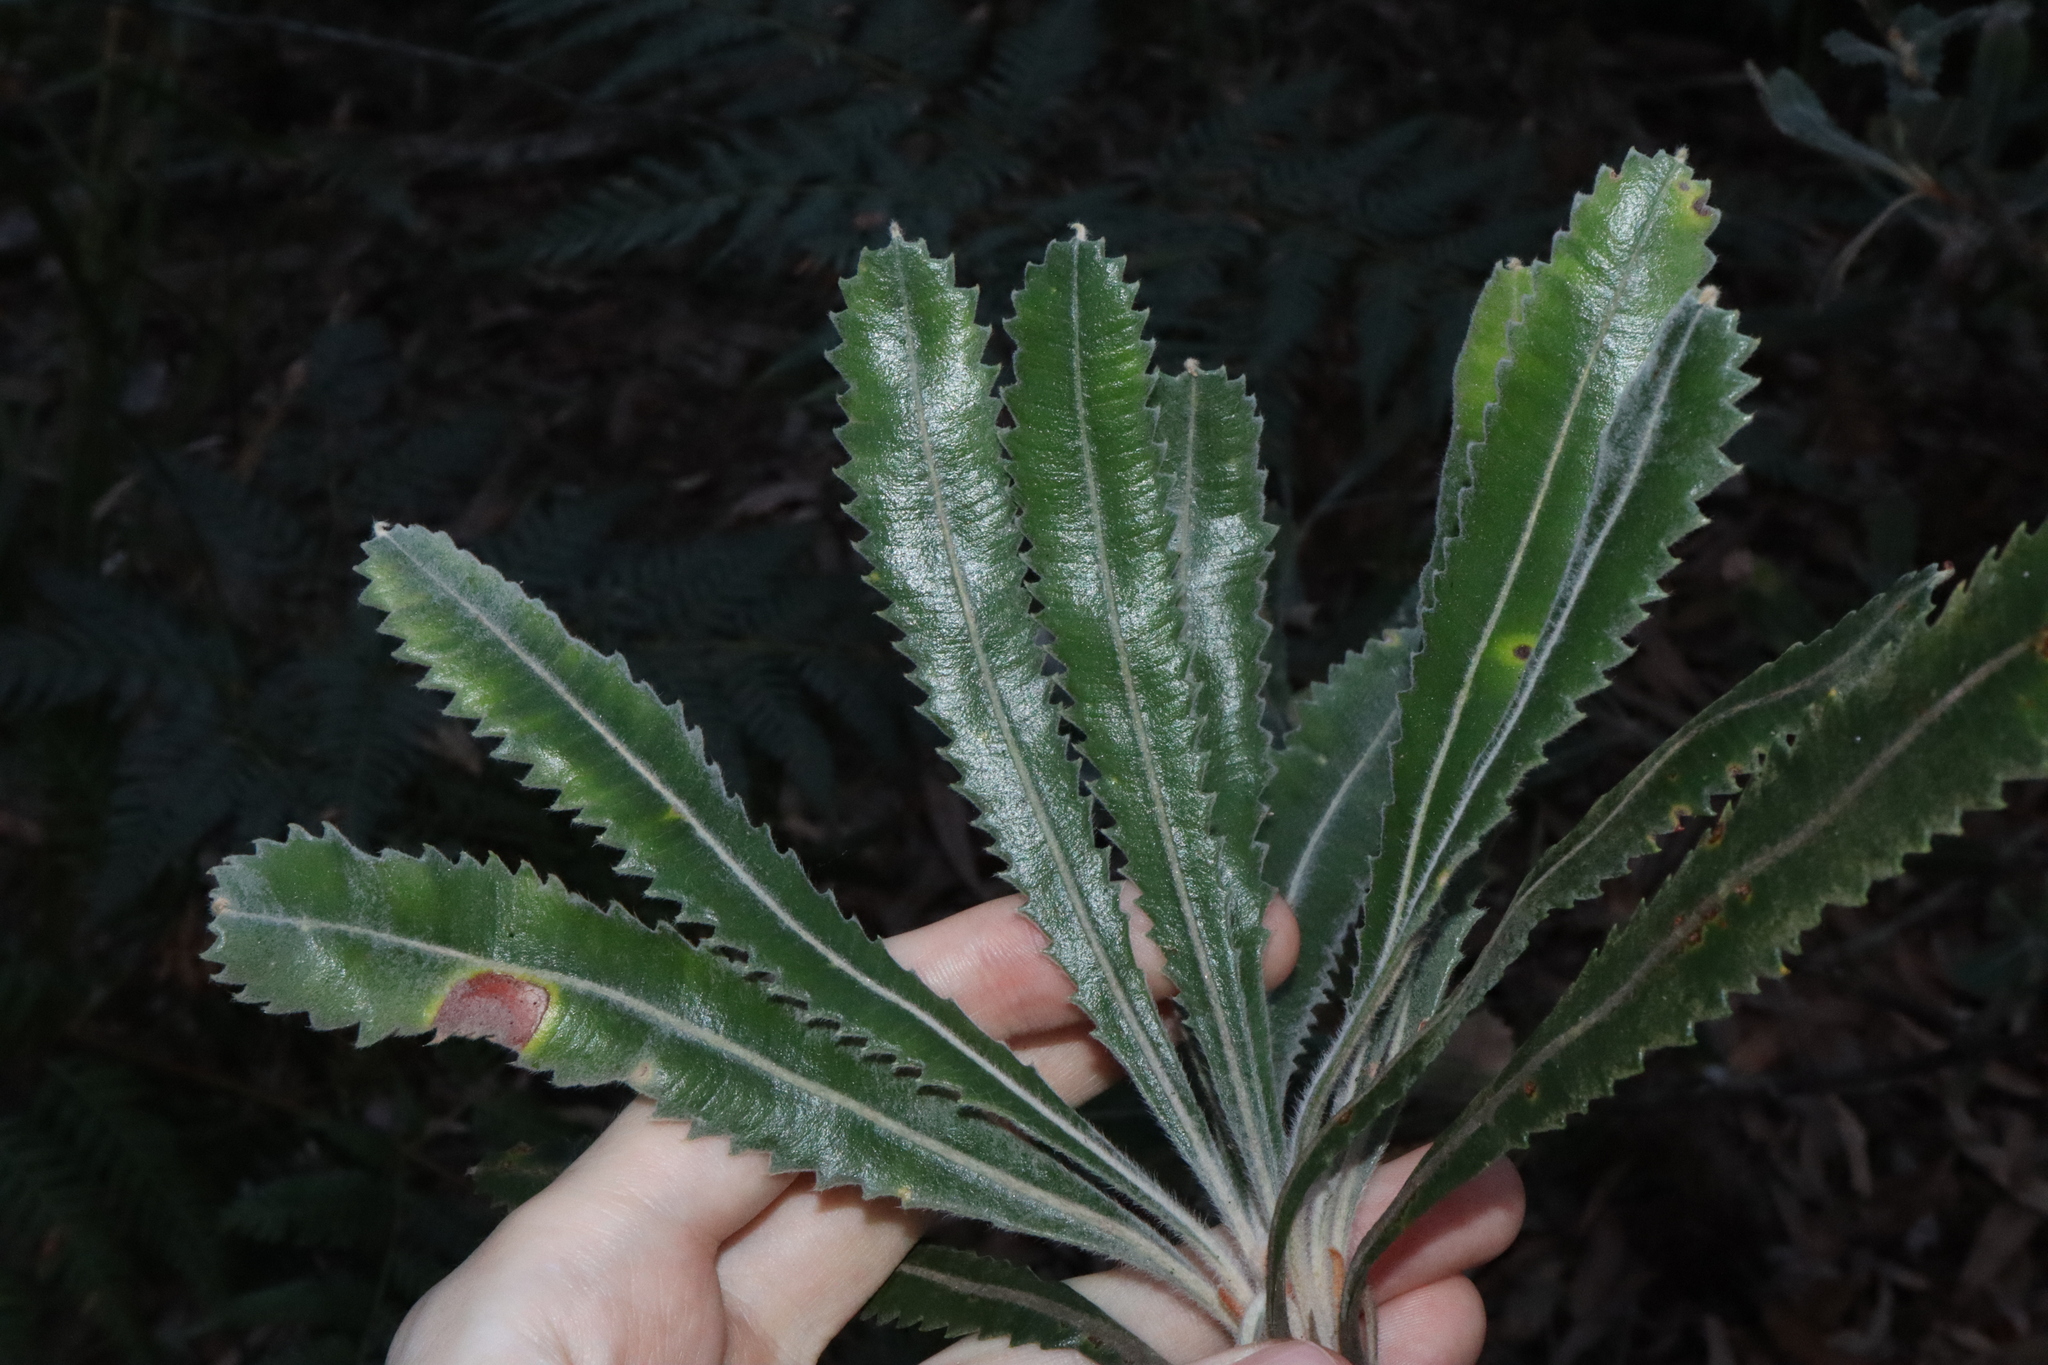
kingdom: Plantae
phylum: Tracheophyta
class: Magnoliopsida
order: Proteales
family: Proteaceae
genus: Banksia
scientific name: Banksia serrata
